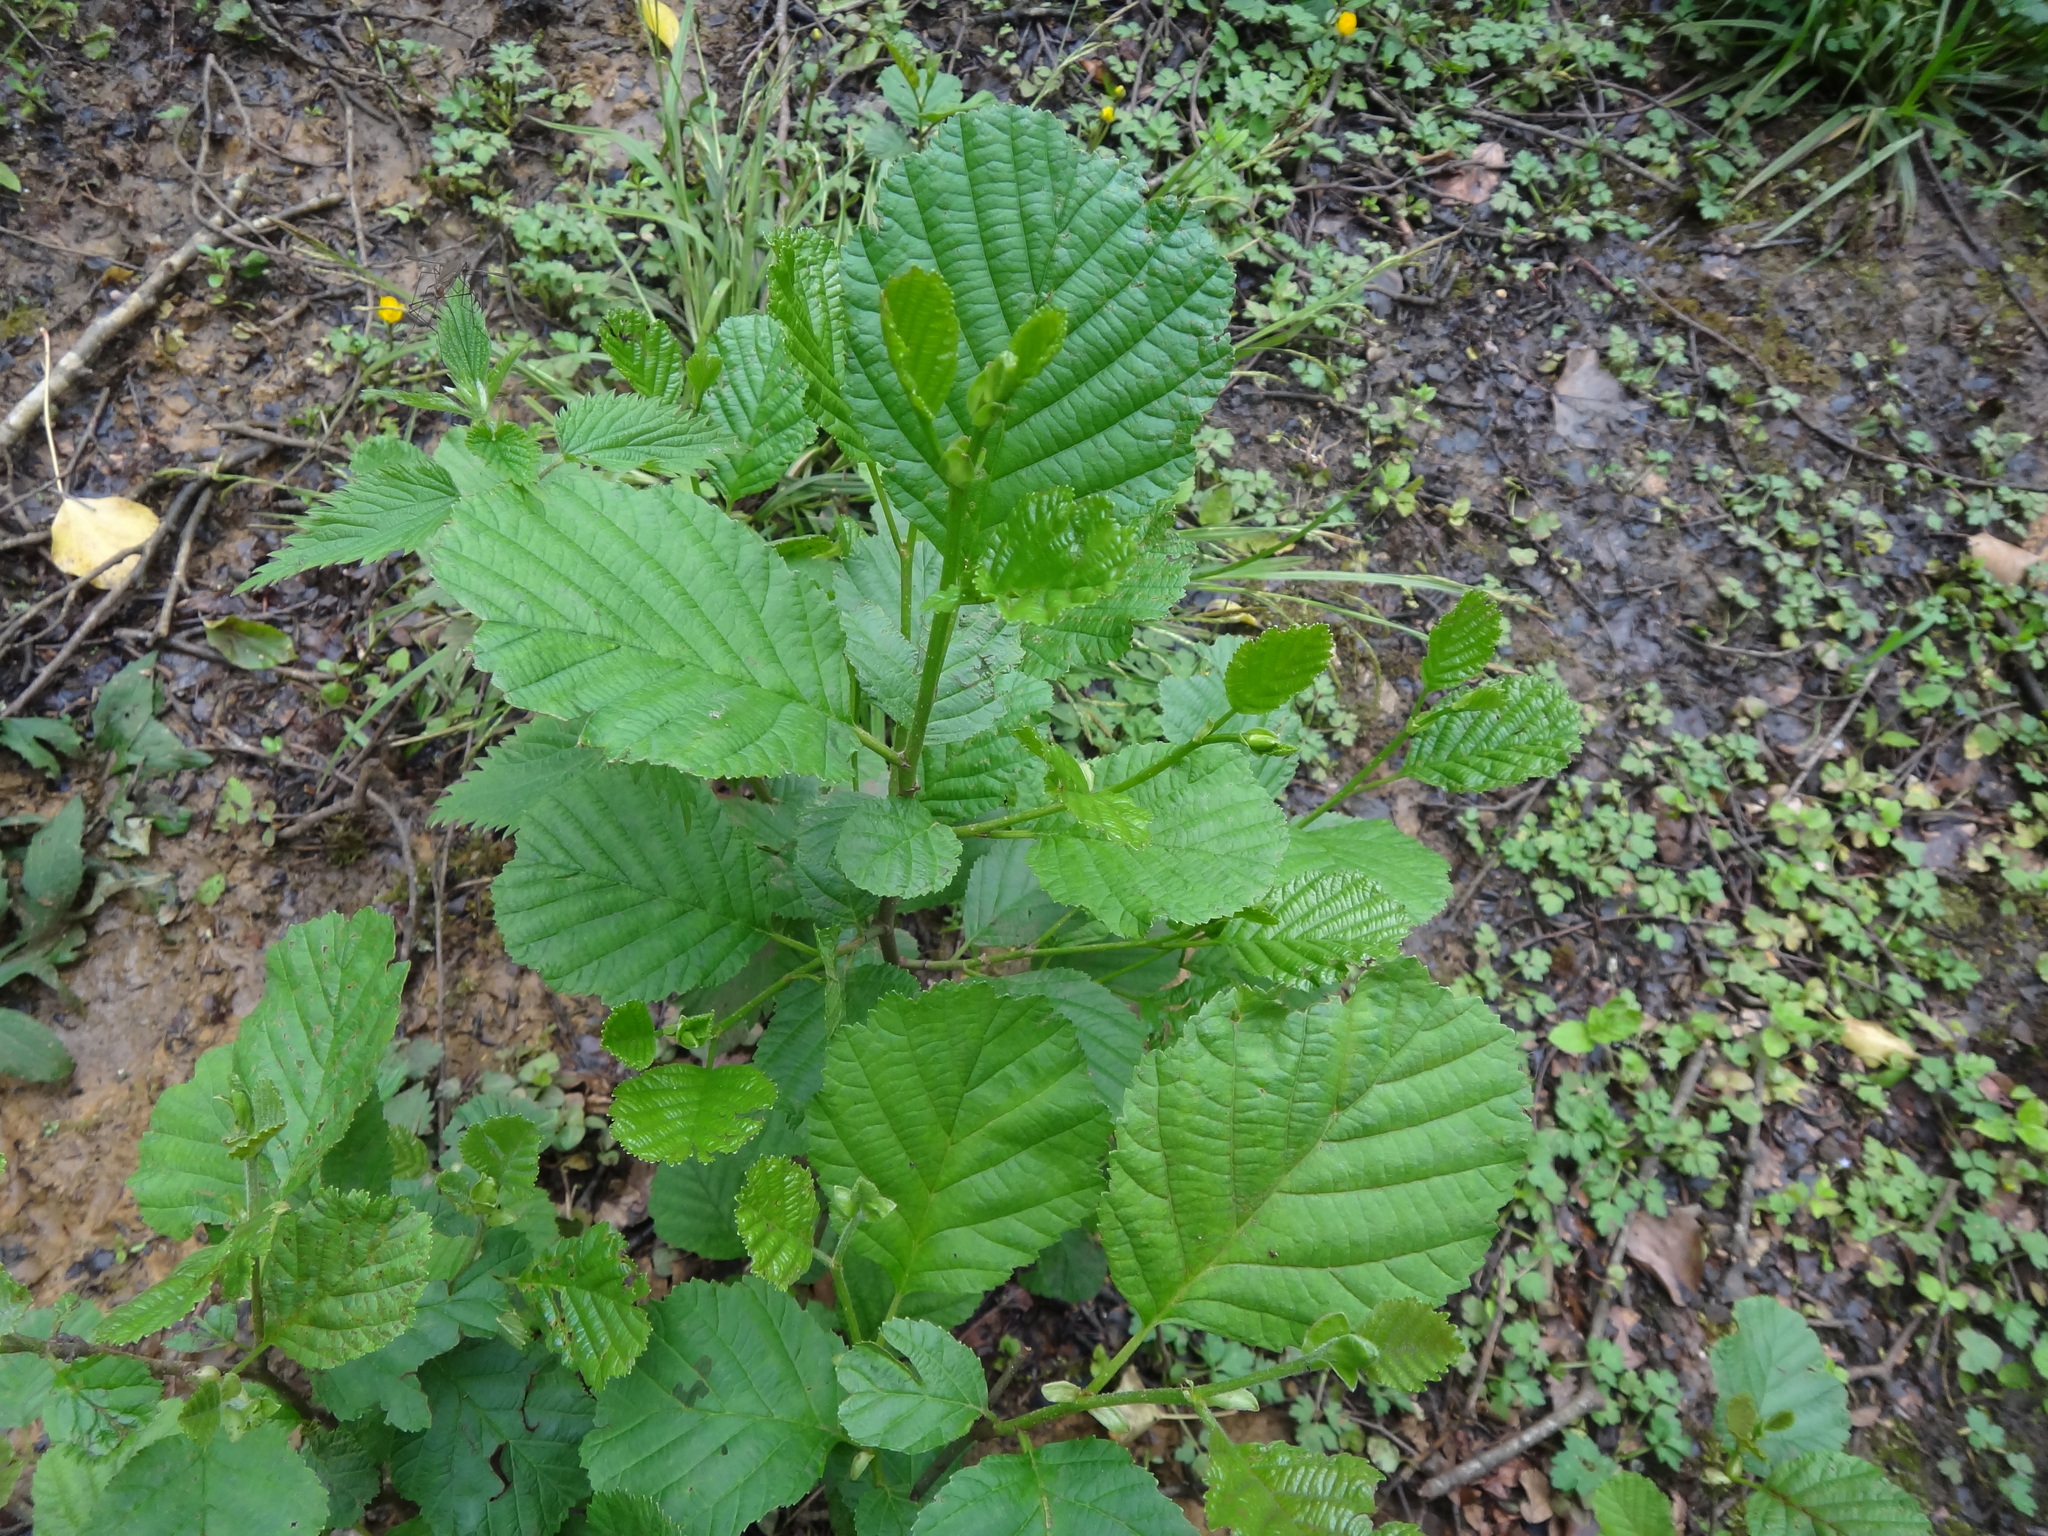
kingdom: Plantae
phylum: Tracheophyta
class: Magnoliopsida
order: Fagales
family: Betulaceae
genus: Alnus
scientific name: Alnus glutinosa
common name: Black alder
